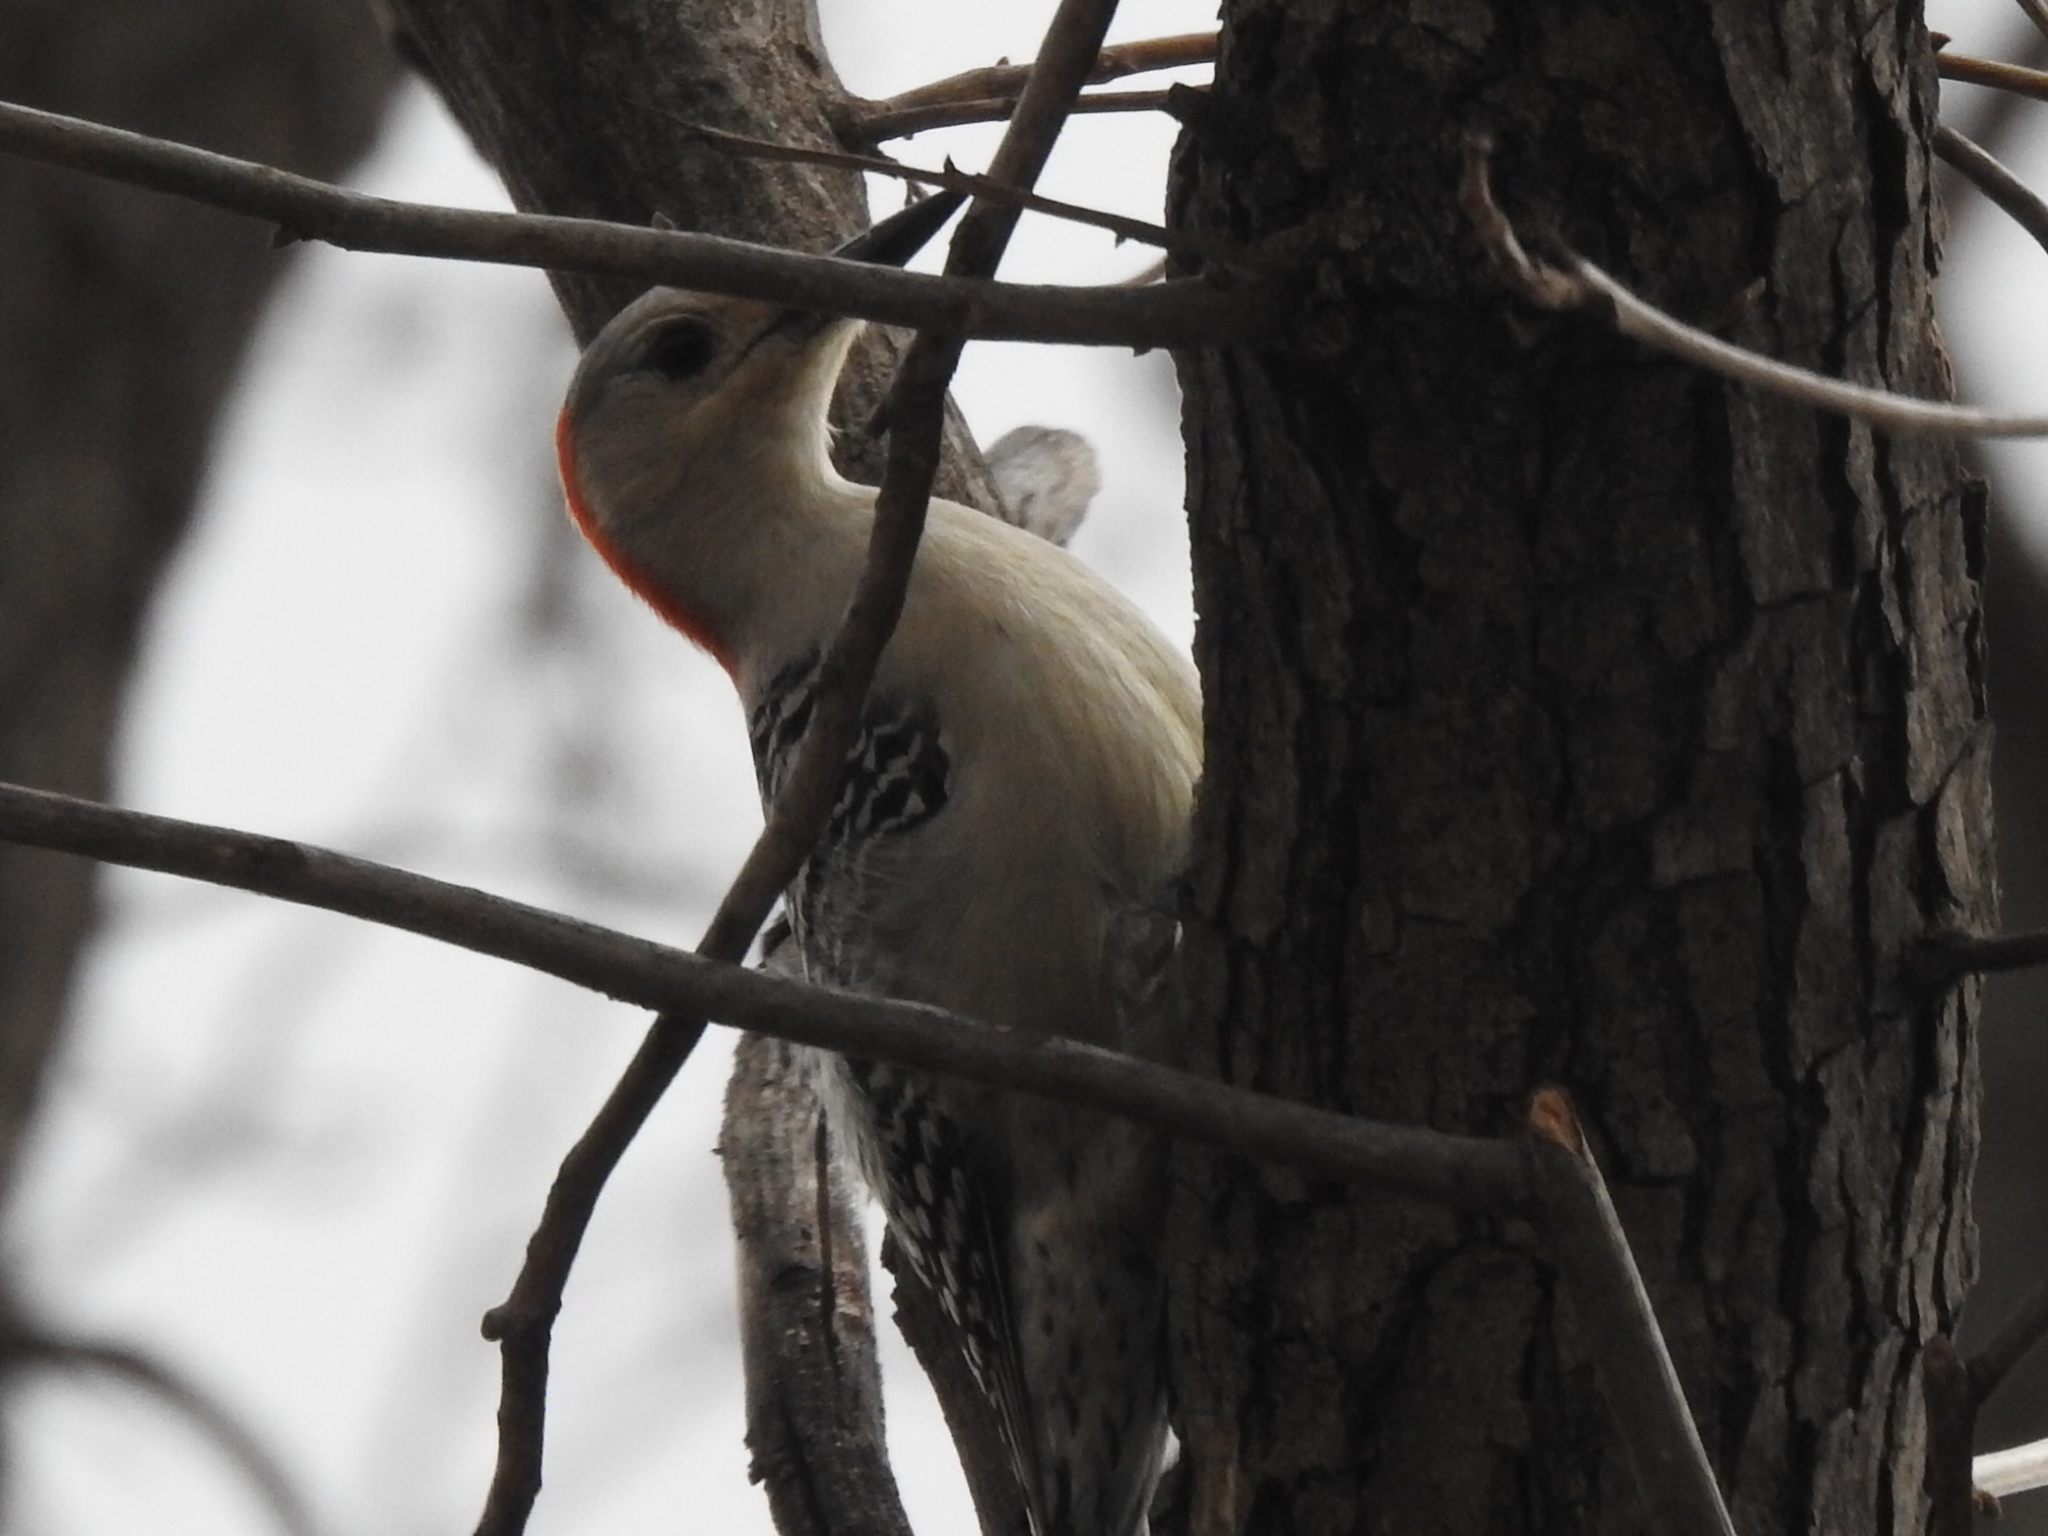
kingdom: Animalia
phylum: Chordata
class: Aves
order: Piciformes
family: Picidae
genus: Melanerpes
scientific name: Melanerpes carolinus
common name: Red-bellied woodpecker
